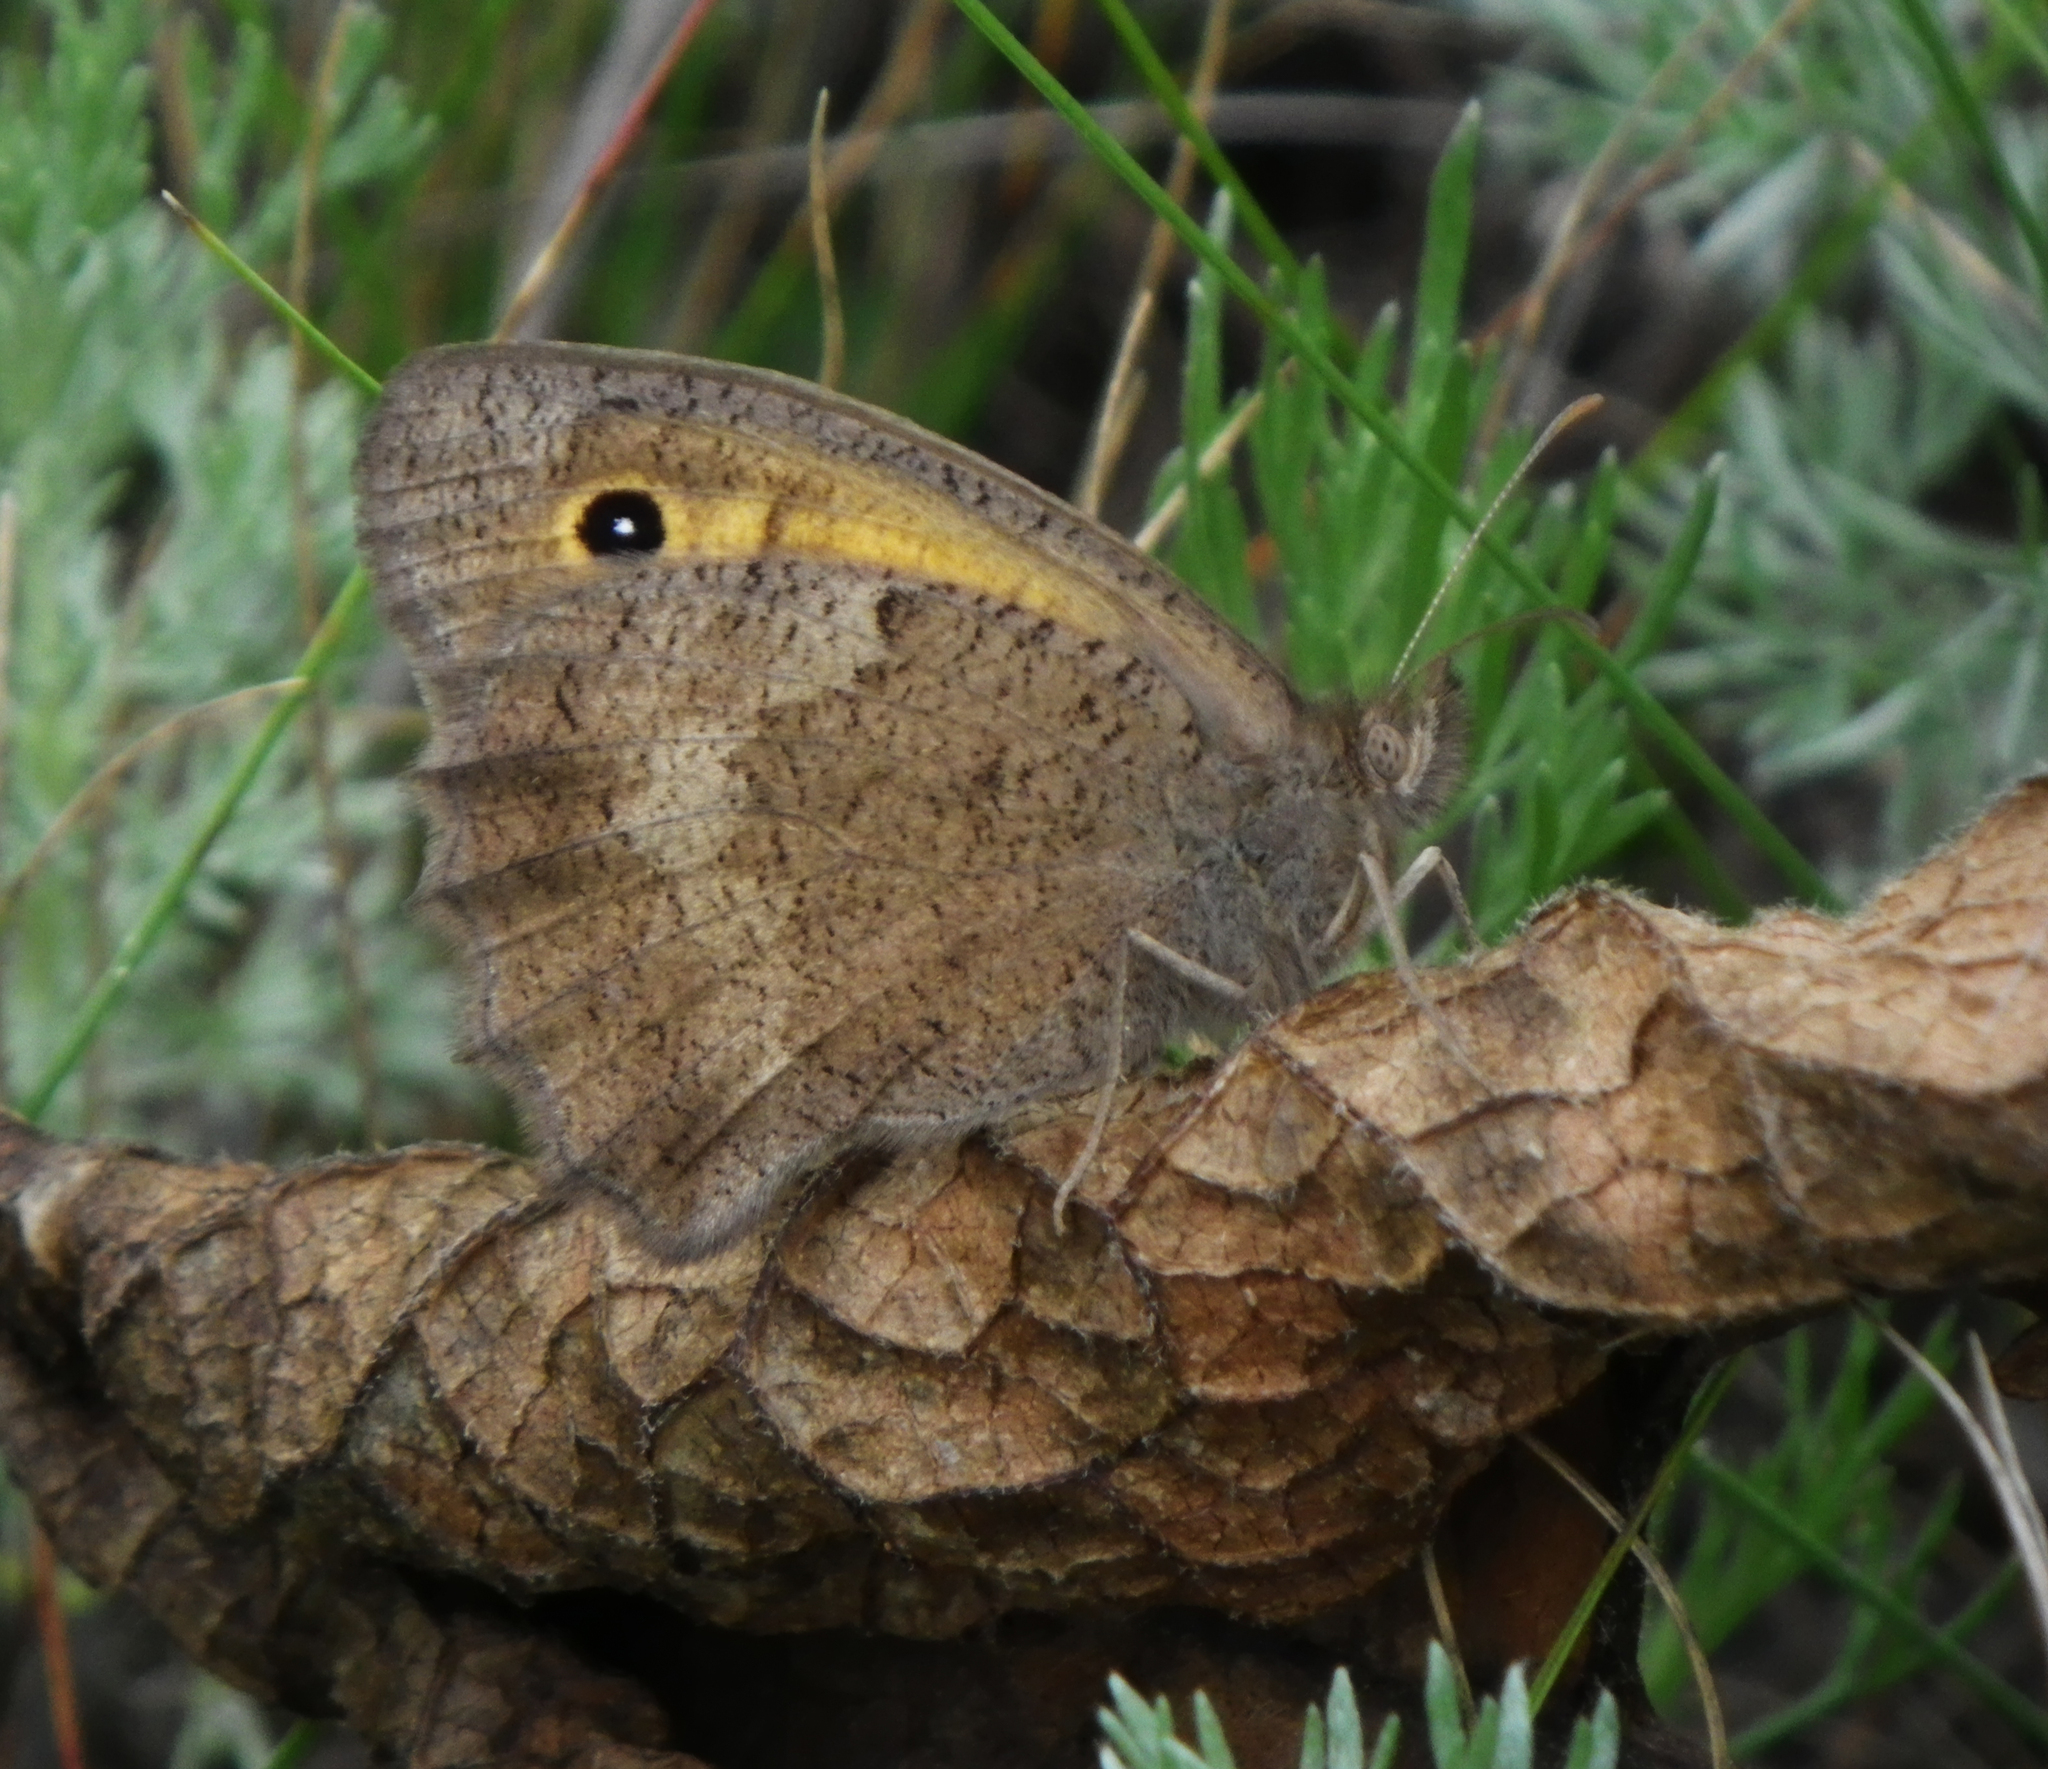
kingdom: Animalia
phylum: Arthropoda
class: Insecta
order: Lepidoptera
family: Nymphalidae
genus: Hyponephele
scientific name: Hyponephele lupinus
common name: Oriental meadow brown
